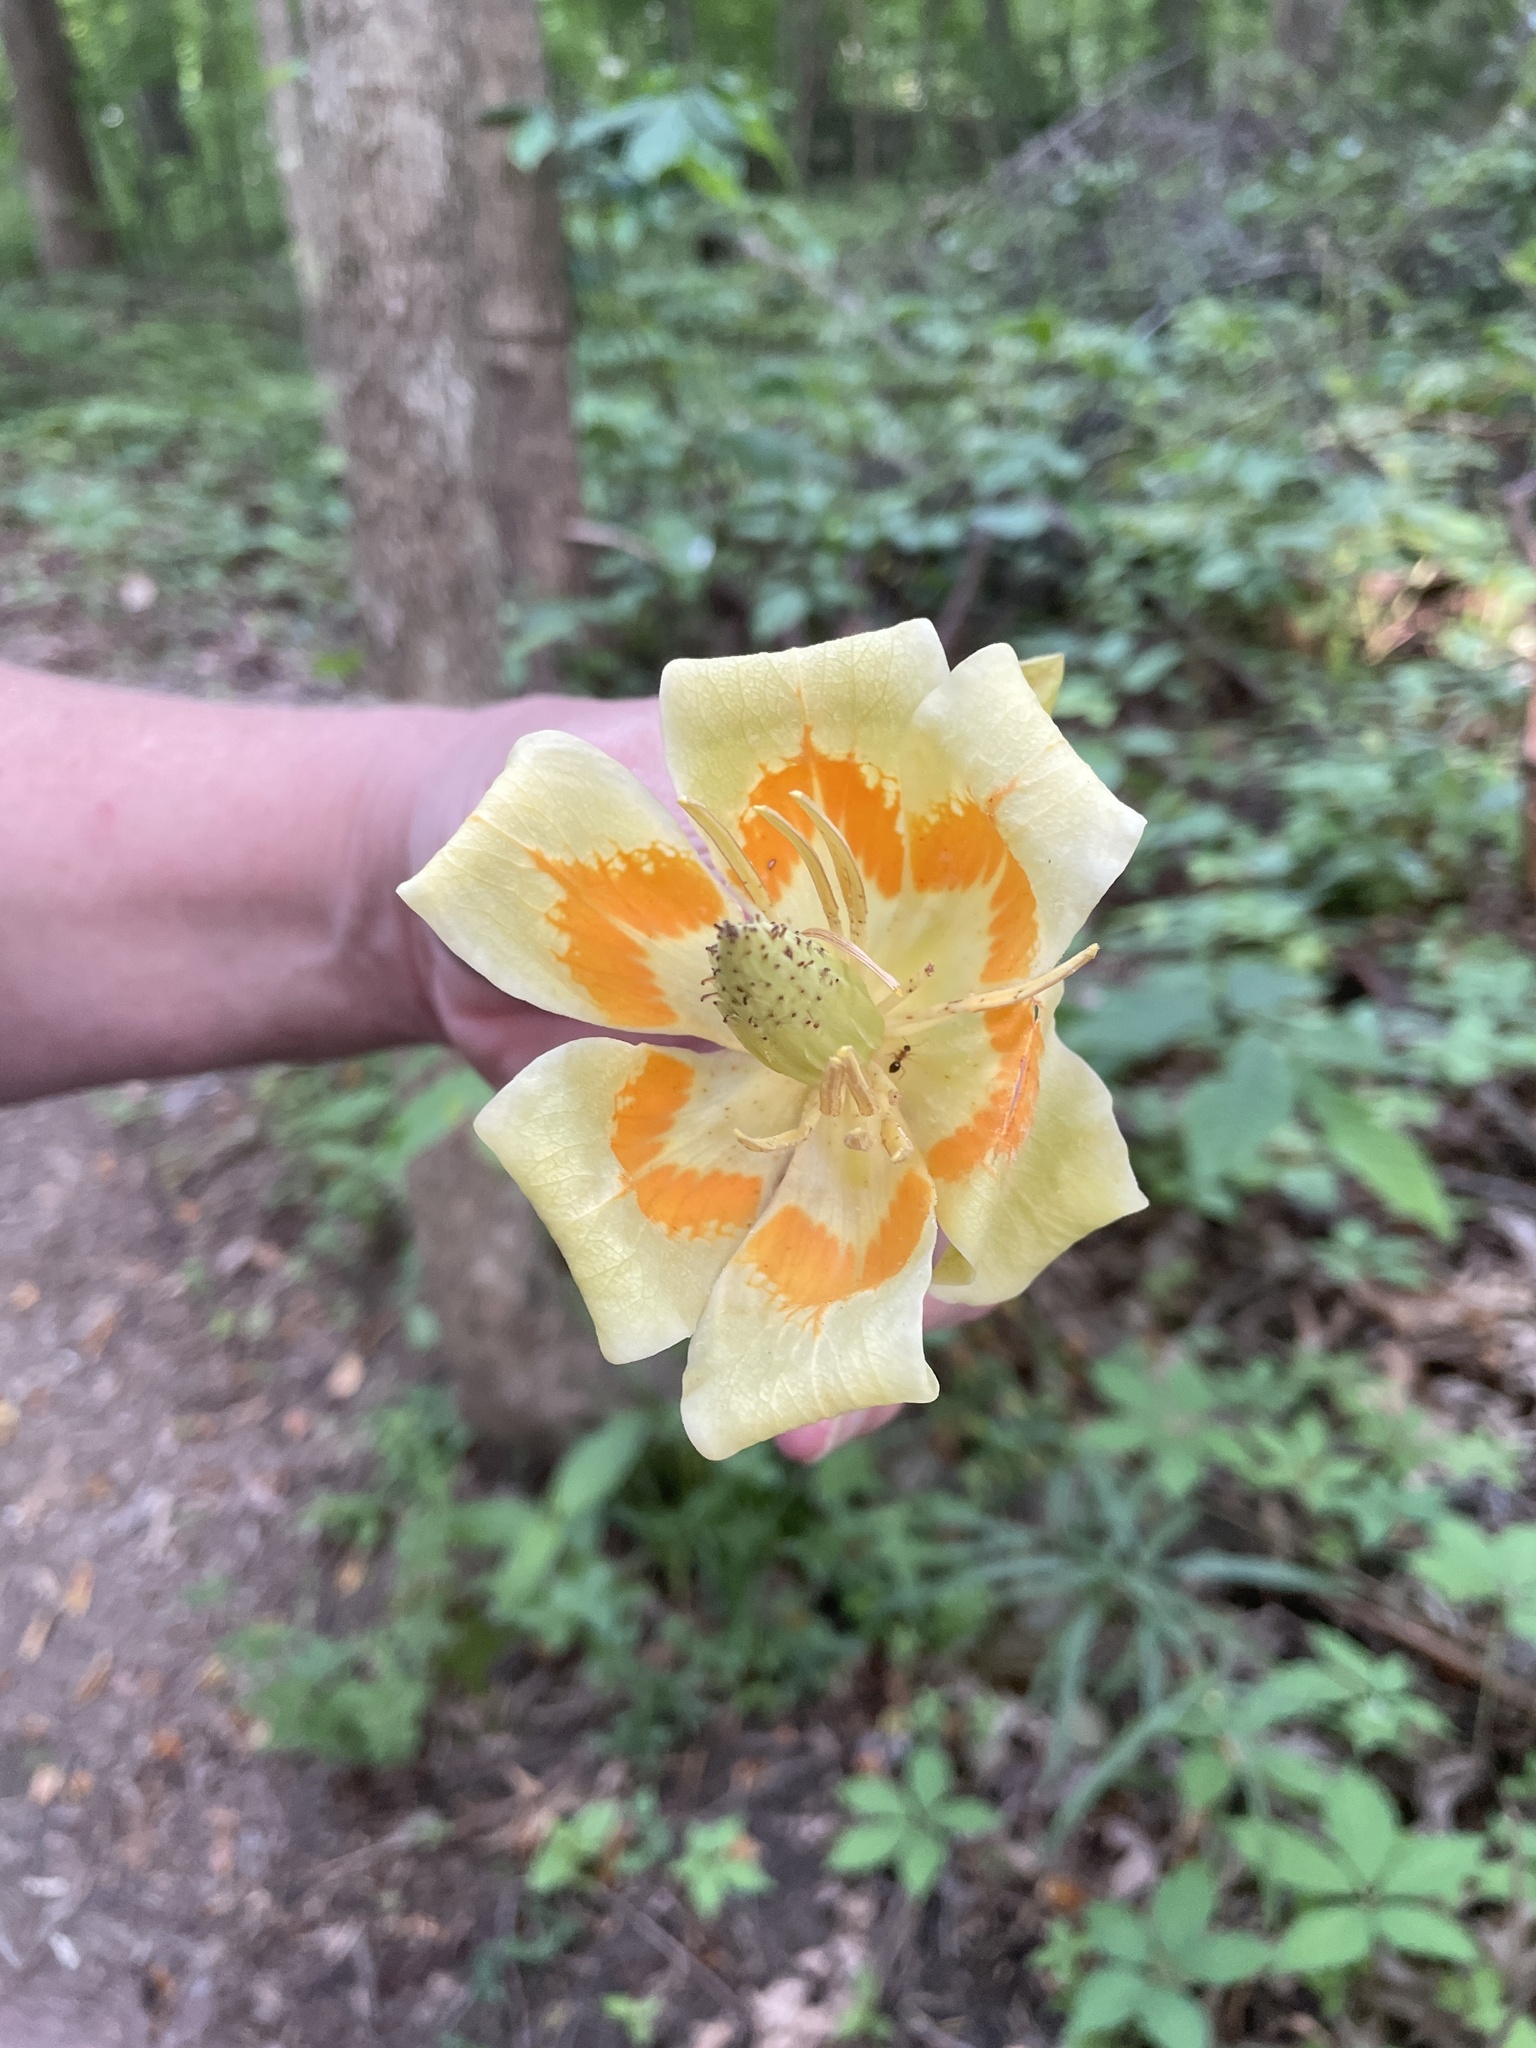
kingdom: Plantae
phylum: Tracheophyta
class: Magnoliopsida
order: Magnoliales
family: Magnoliaceae
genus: Liriodendron
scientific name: Liriodendron tulipifera
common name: Tulip tree
